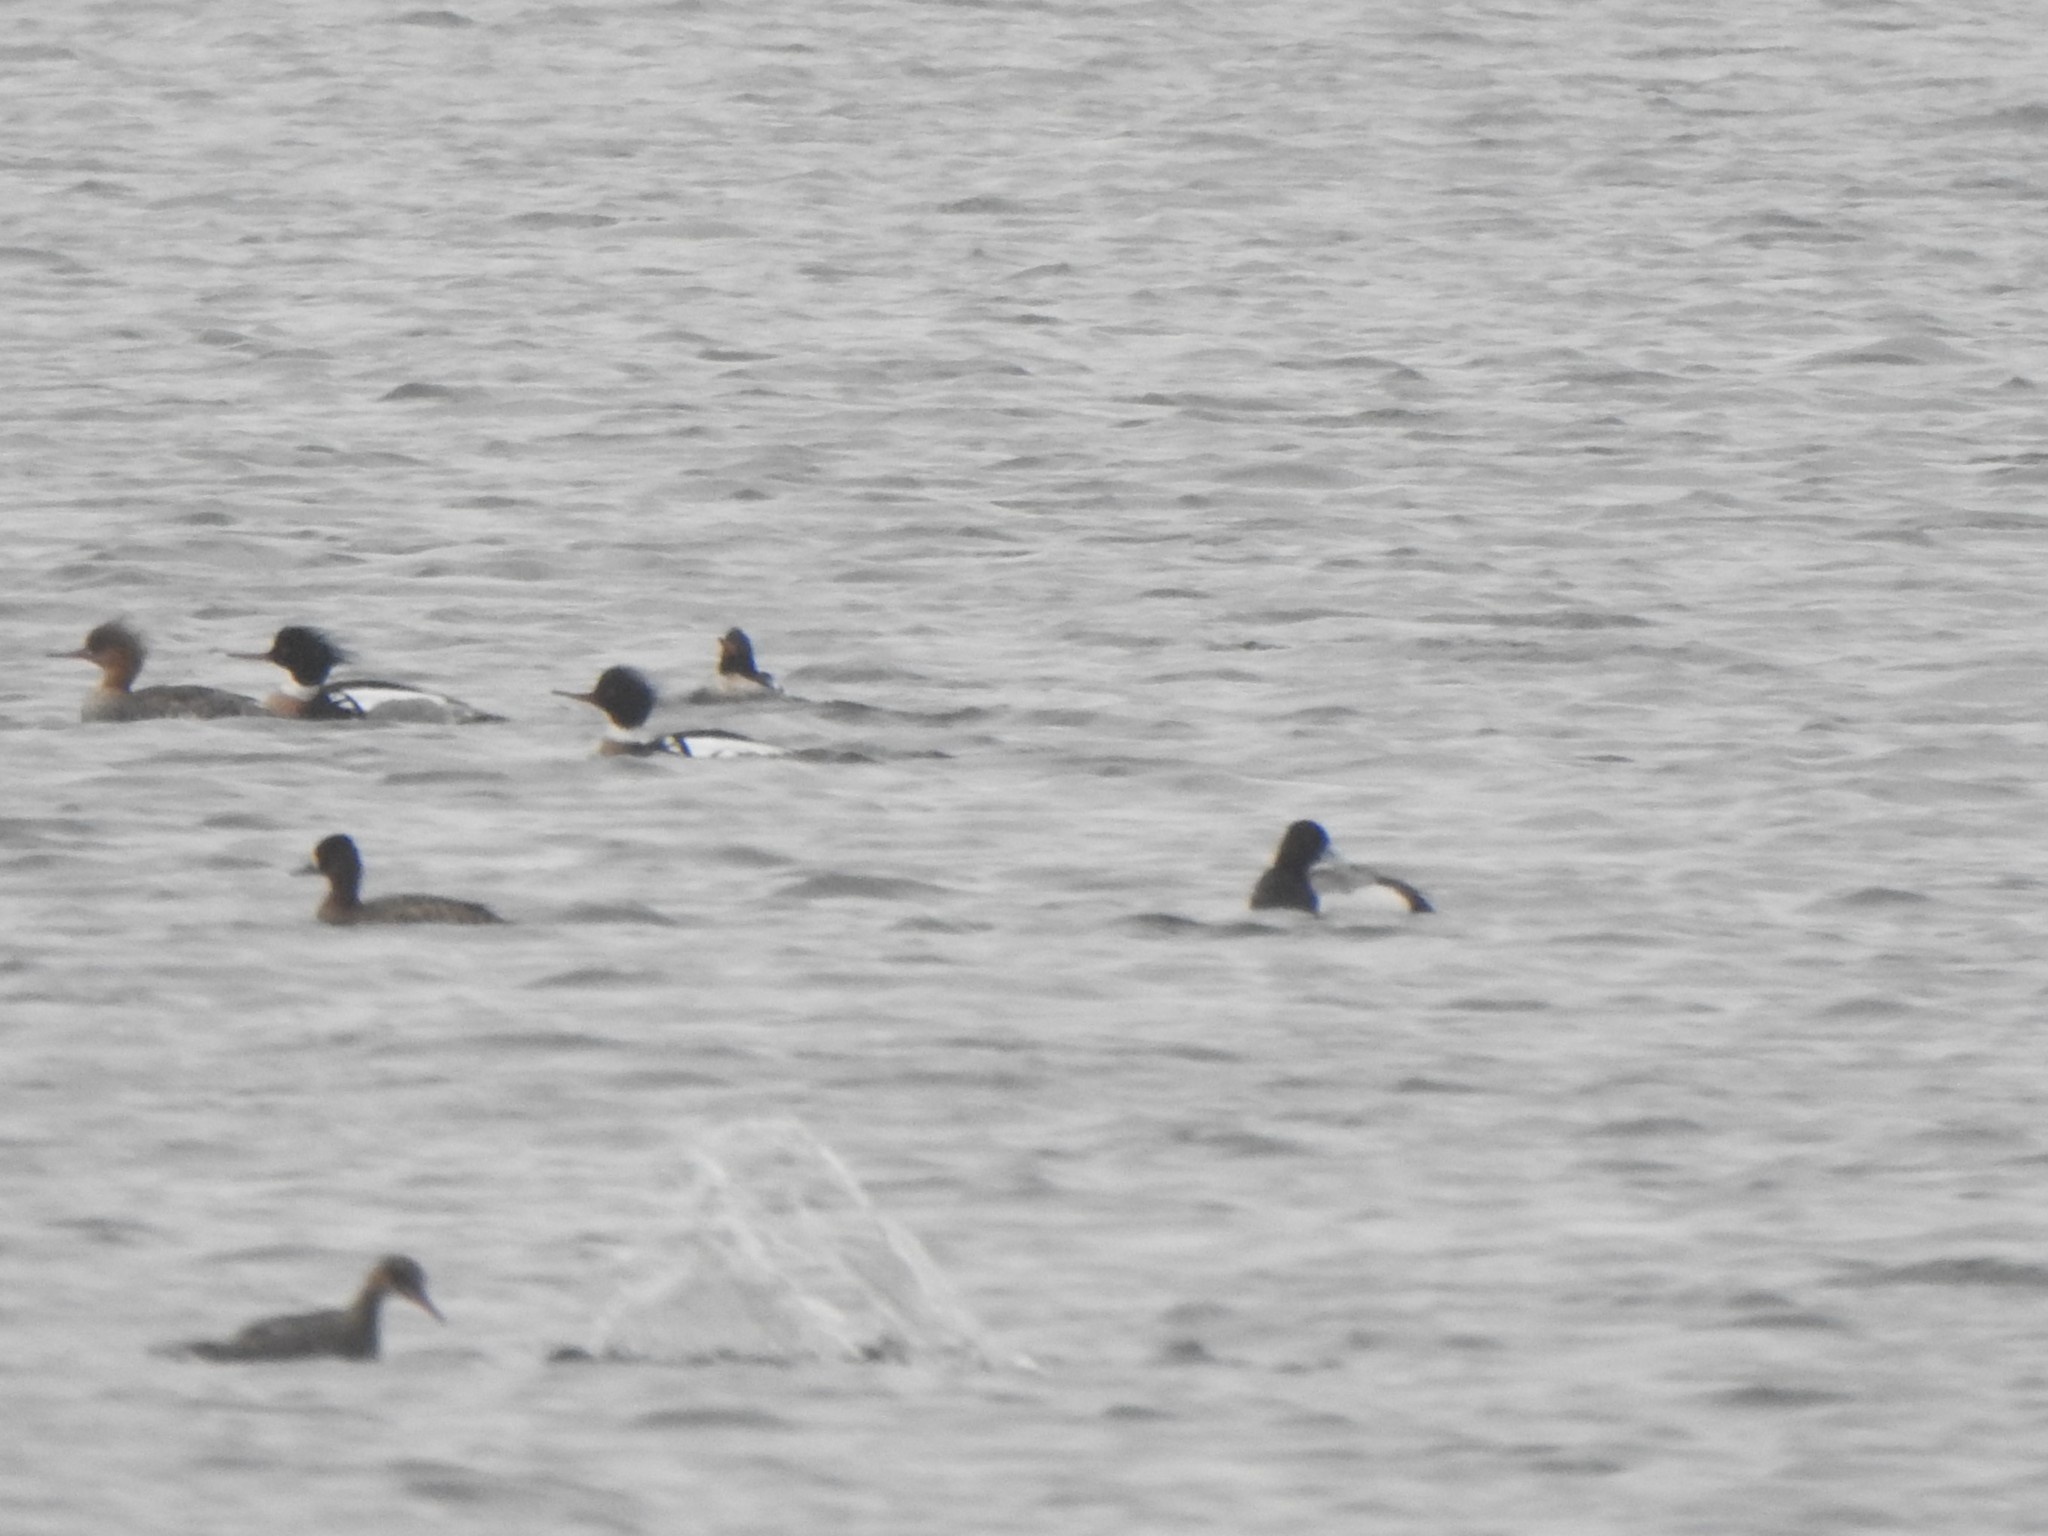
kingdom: Animalia
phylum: Chordata
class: Aves
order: Anseriformes
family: Anatidae
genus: Aythya
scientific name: Aythya affinis
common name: Lesser scaup
